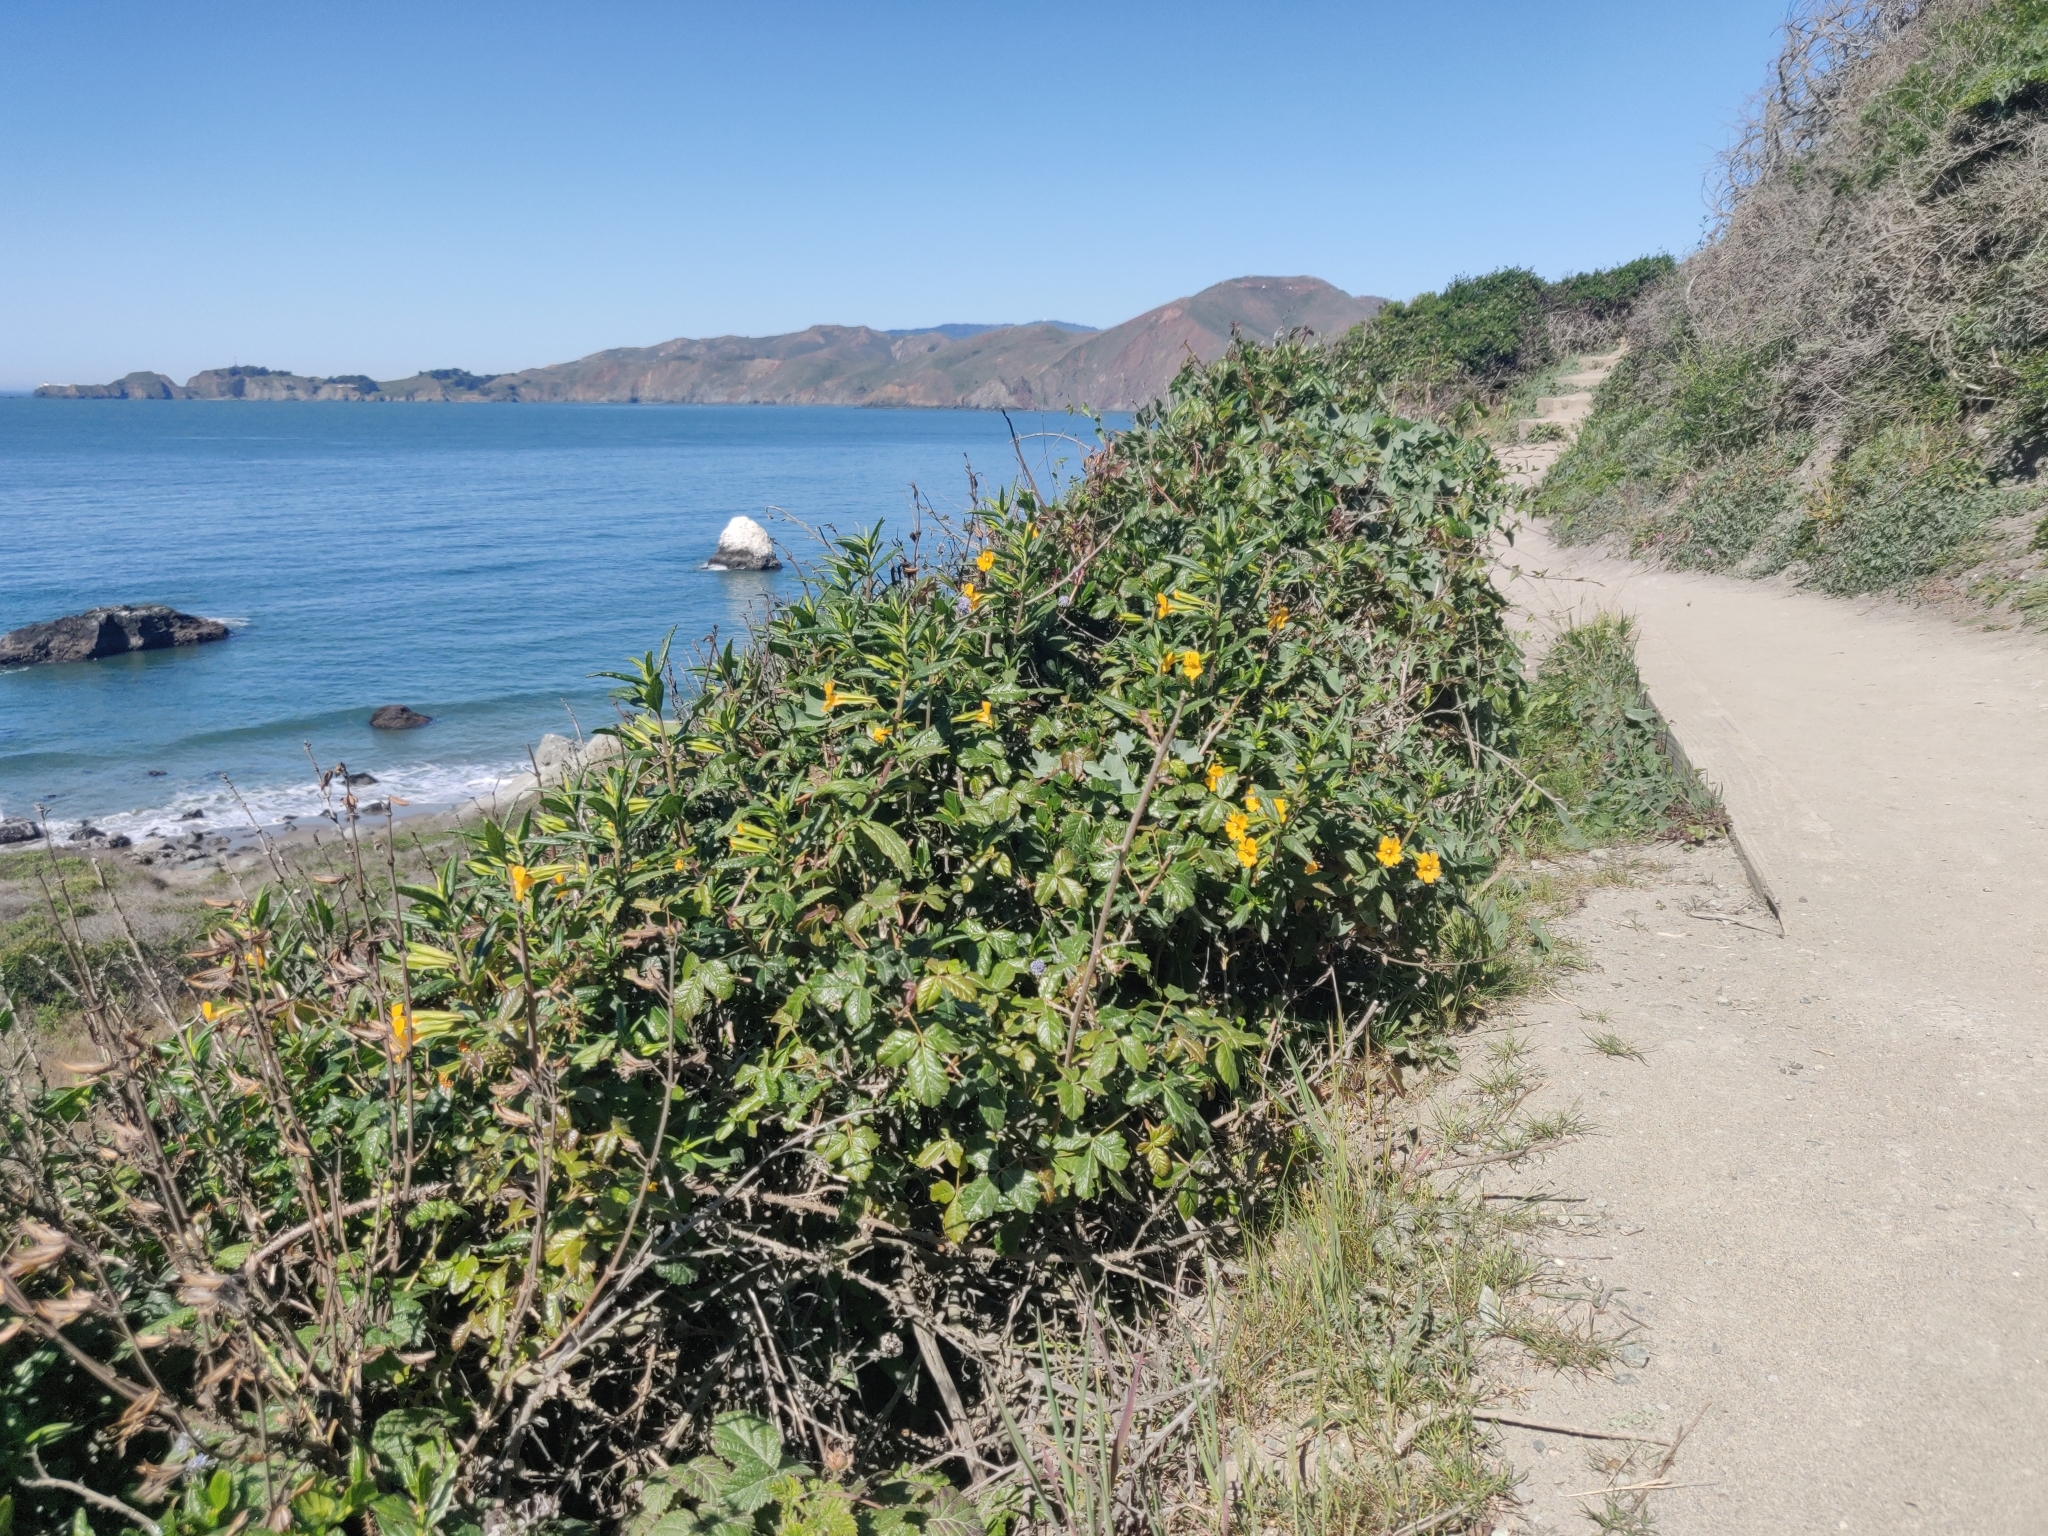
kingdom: Plantae
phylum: Tracheophyta
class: Magnoliopsida
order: Lamiales
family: Phrymaceae
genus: Diplacus
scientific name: Diplacus aurantiacus
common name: Bush monkey-flower
